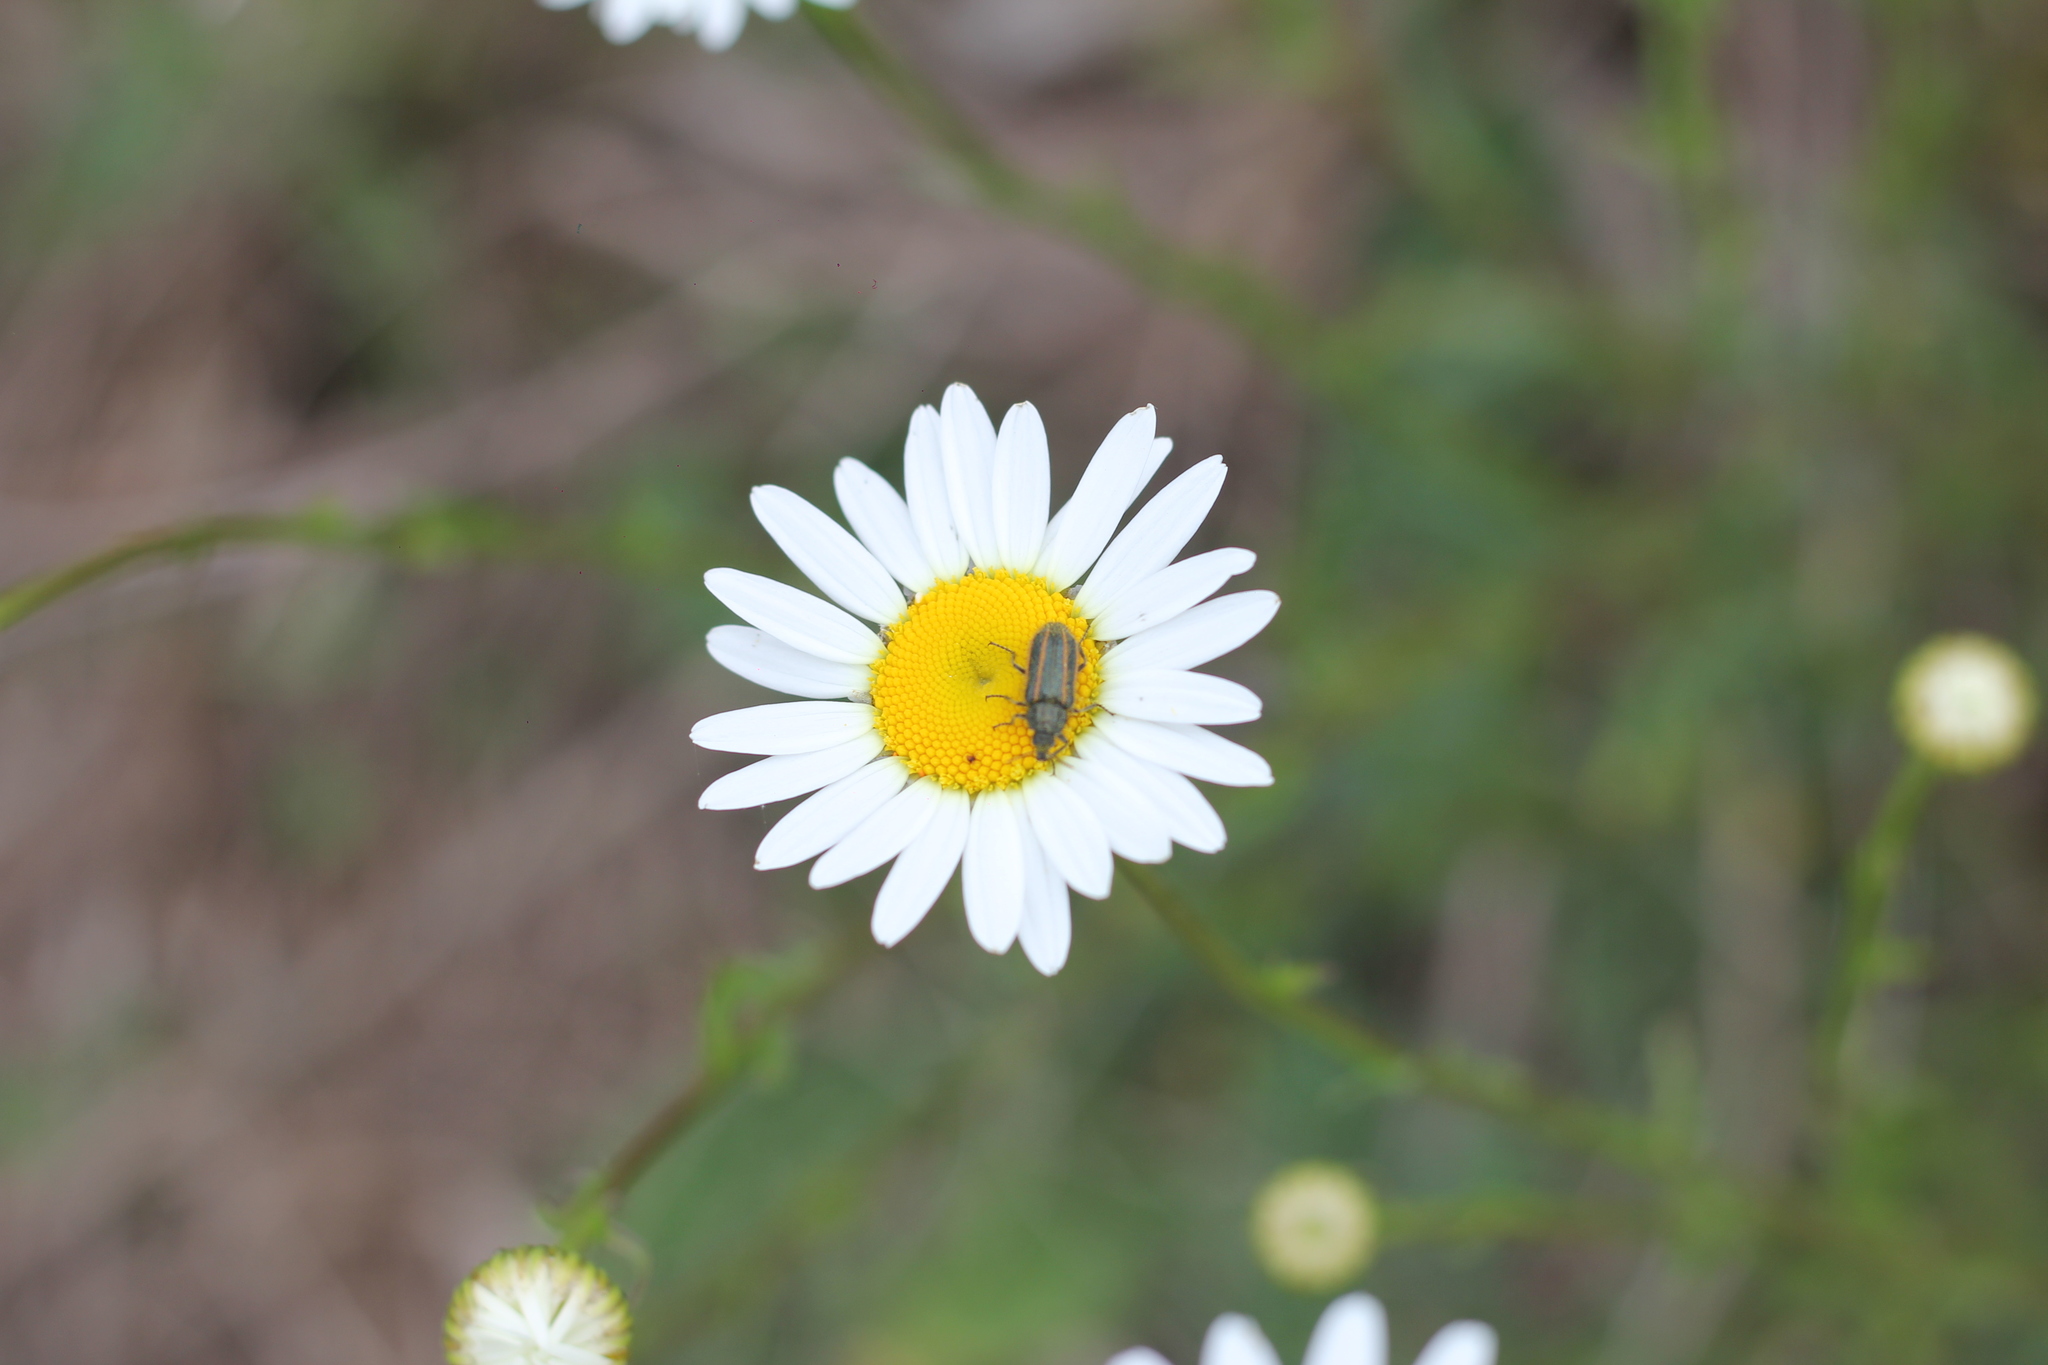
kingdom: Animalia
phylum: Arthropoda
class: Insecta
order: Coleoptera
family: Melyridae
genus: Astylus
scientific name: Astylus
